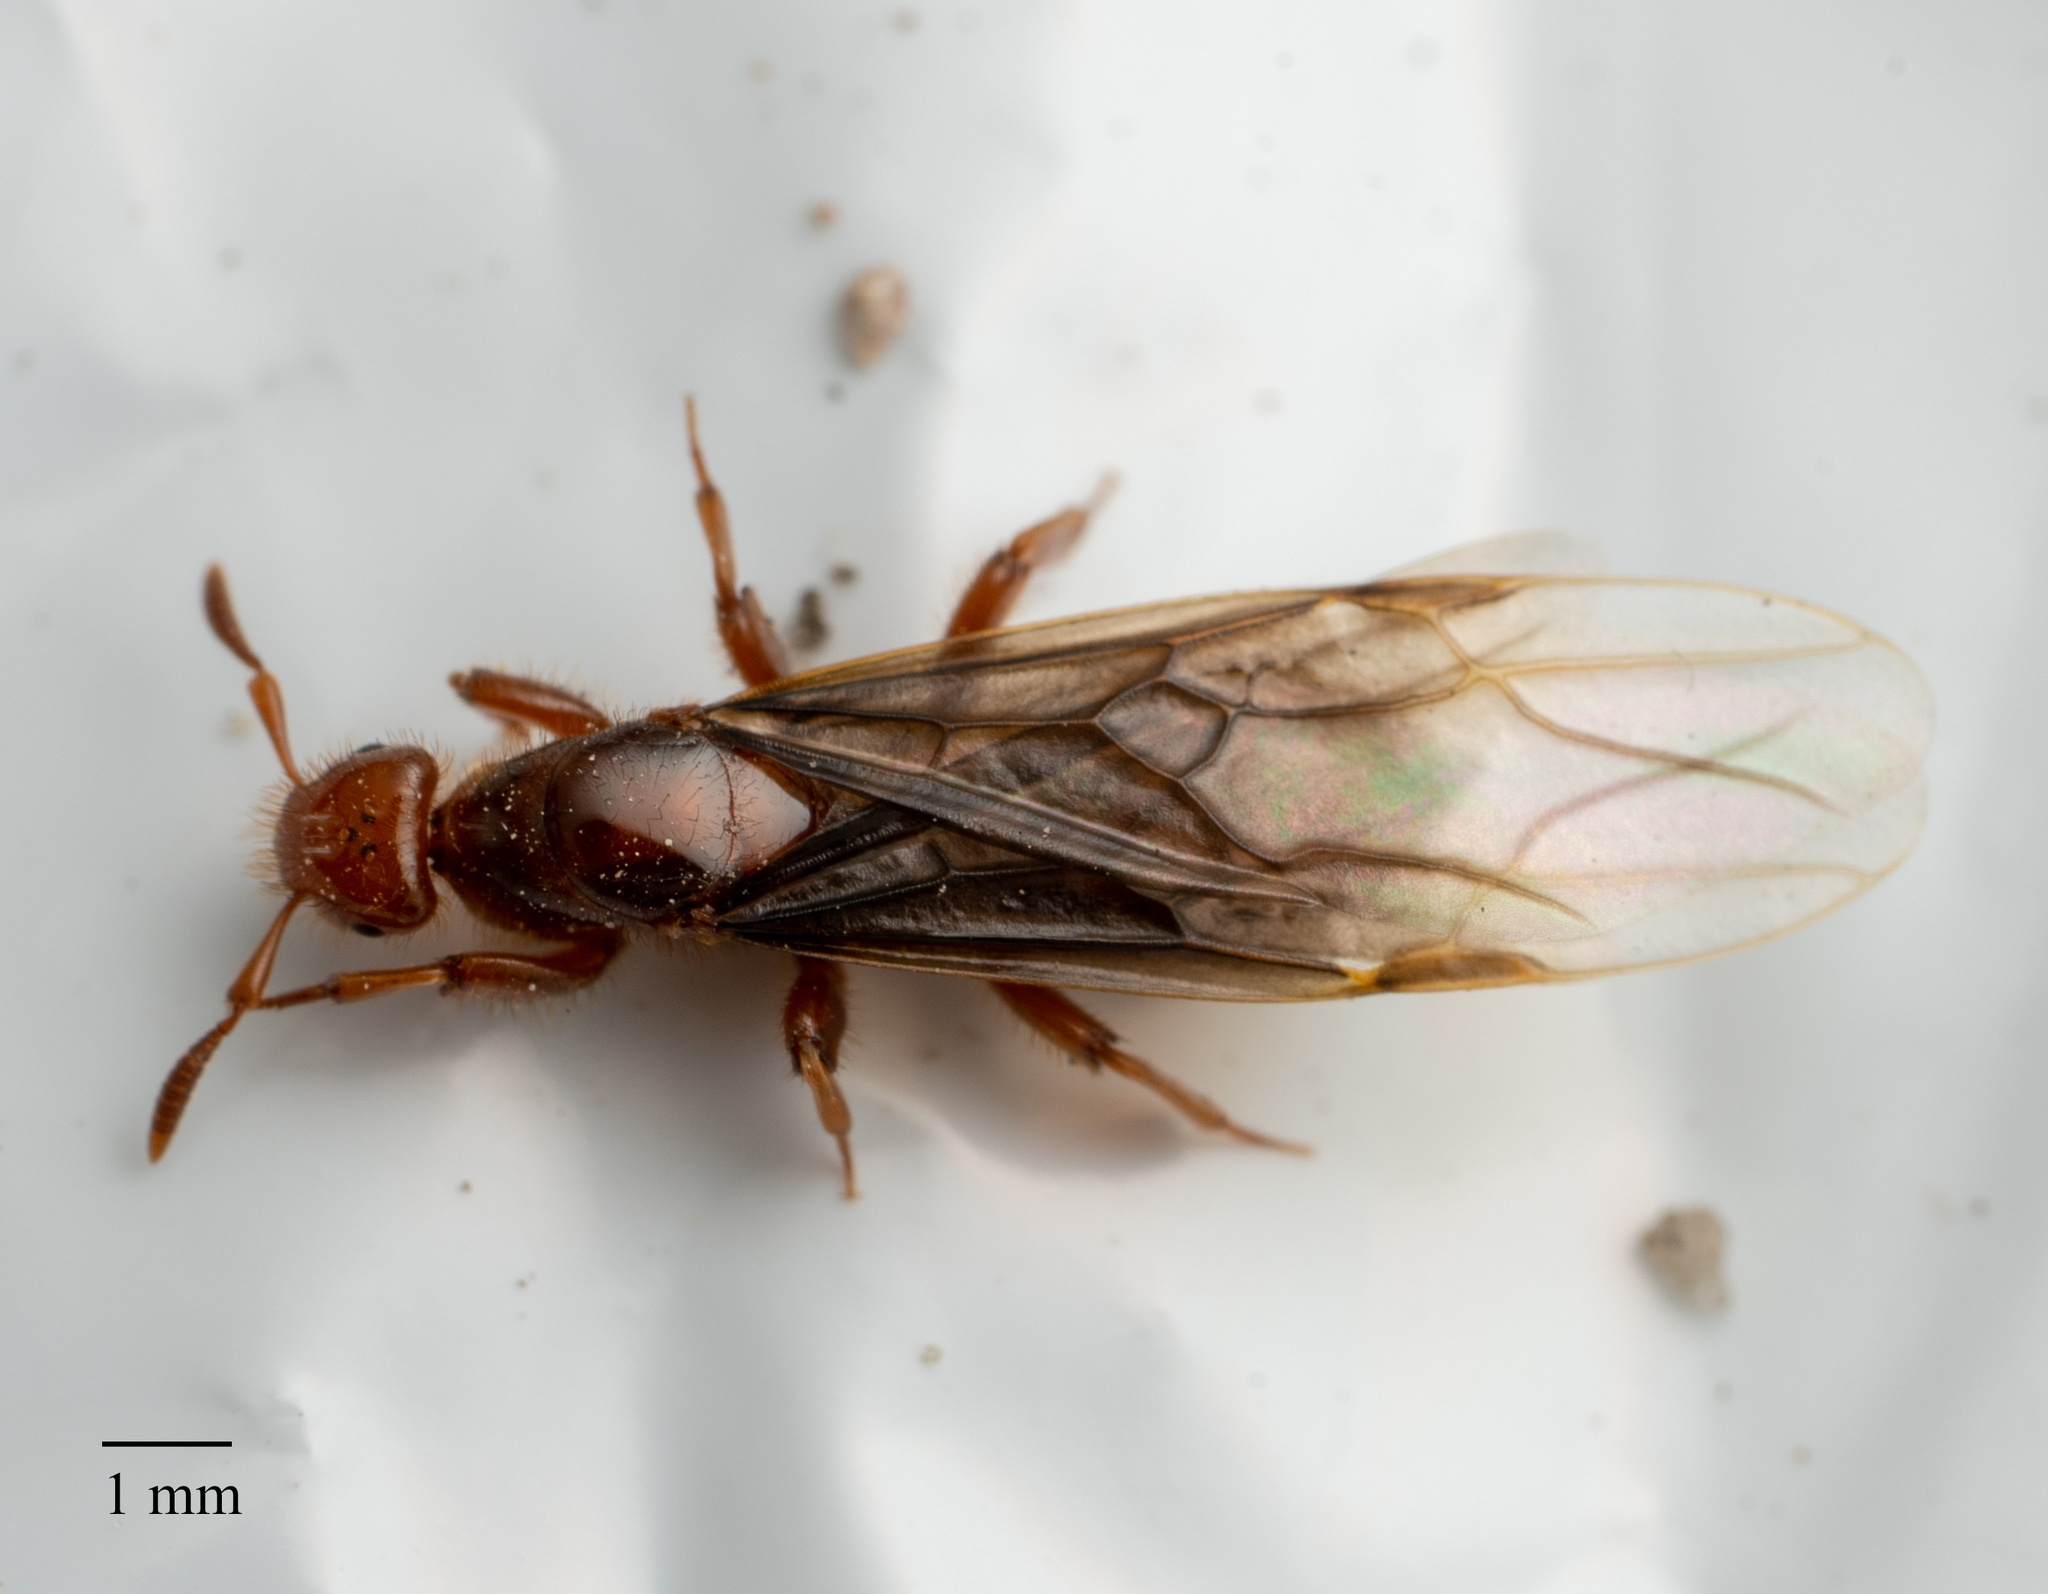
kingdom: Animalia
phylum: Arthropoda
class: Insecta
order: Hymenoptera
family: Formicidae
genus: Acanthomyops
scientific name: Acanthomyops latipes
